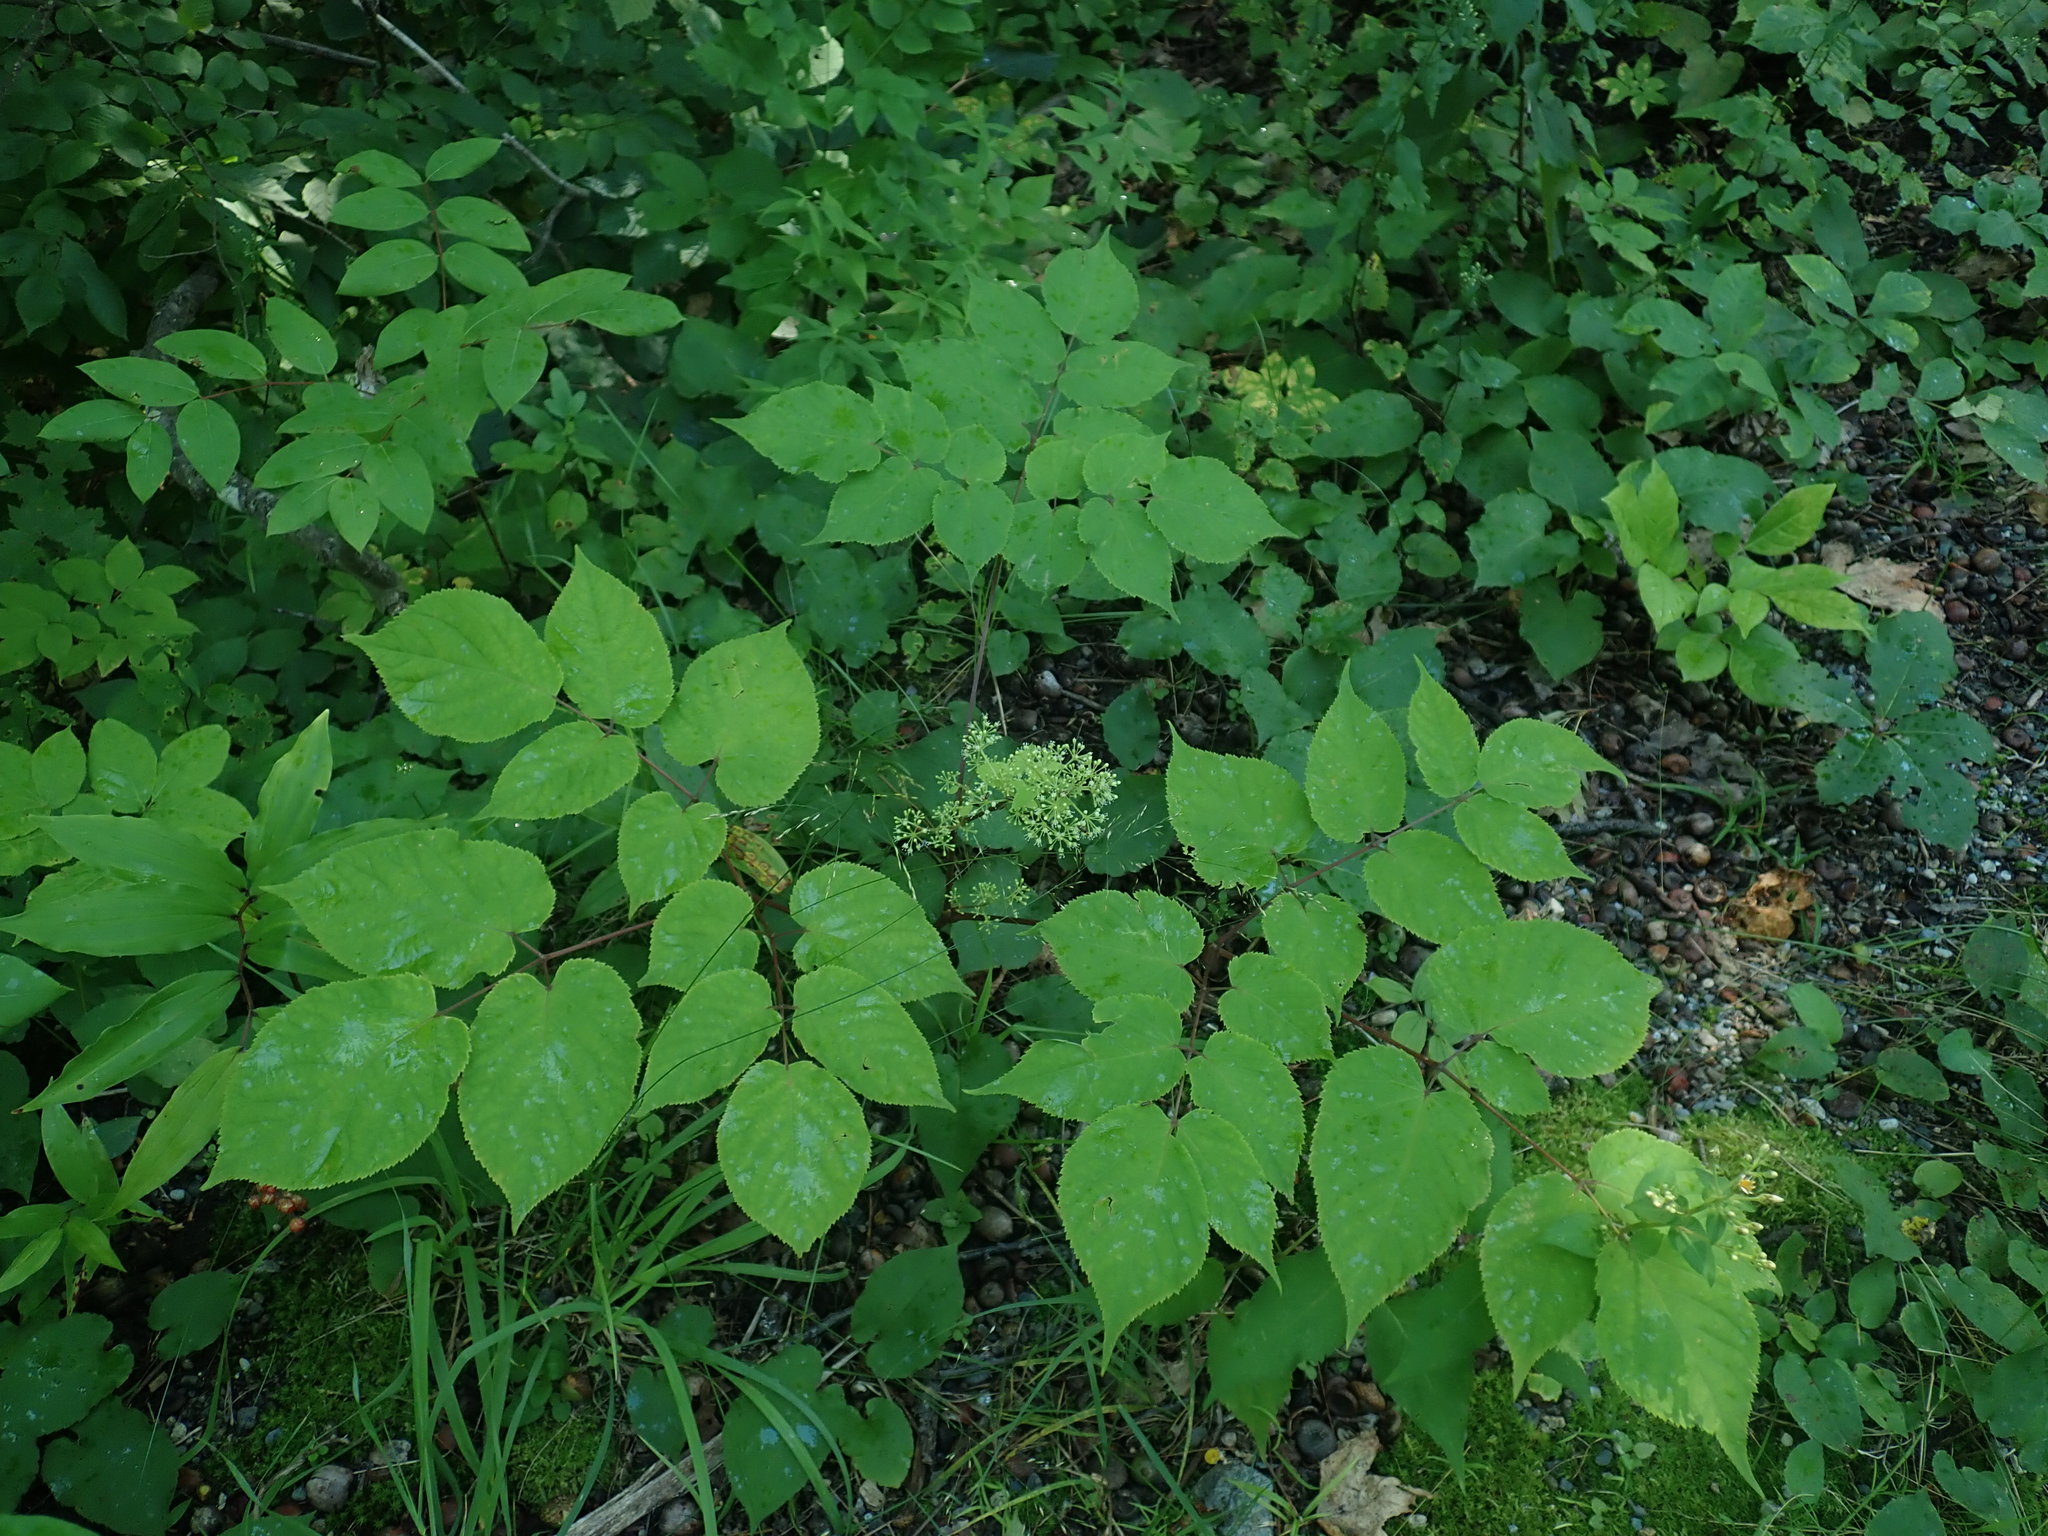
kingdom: Plantae
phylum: Tracheophyta
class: Magnoliopsida
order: Apiales
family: Araliaceae
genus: Aralia
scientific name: Aralia racemosa
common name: American-spikenard
